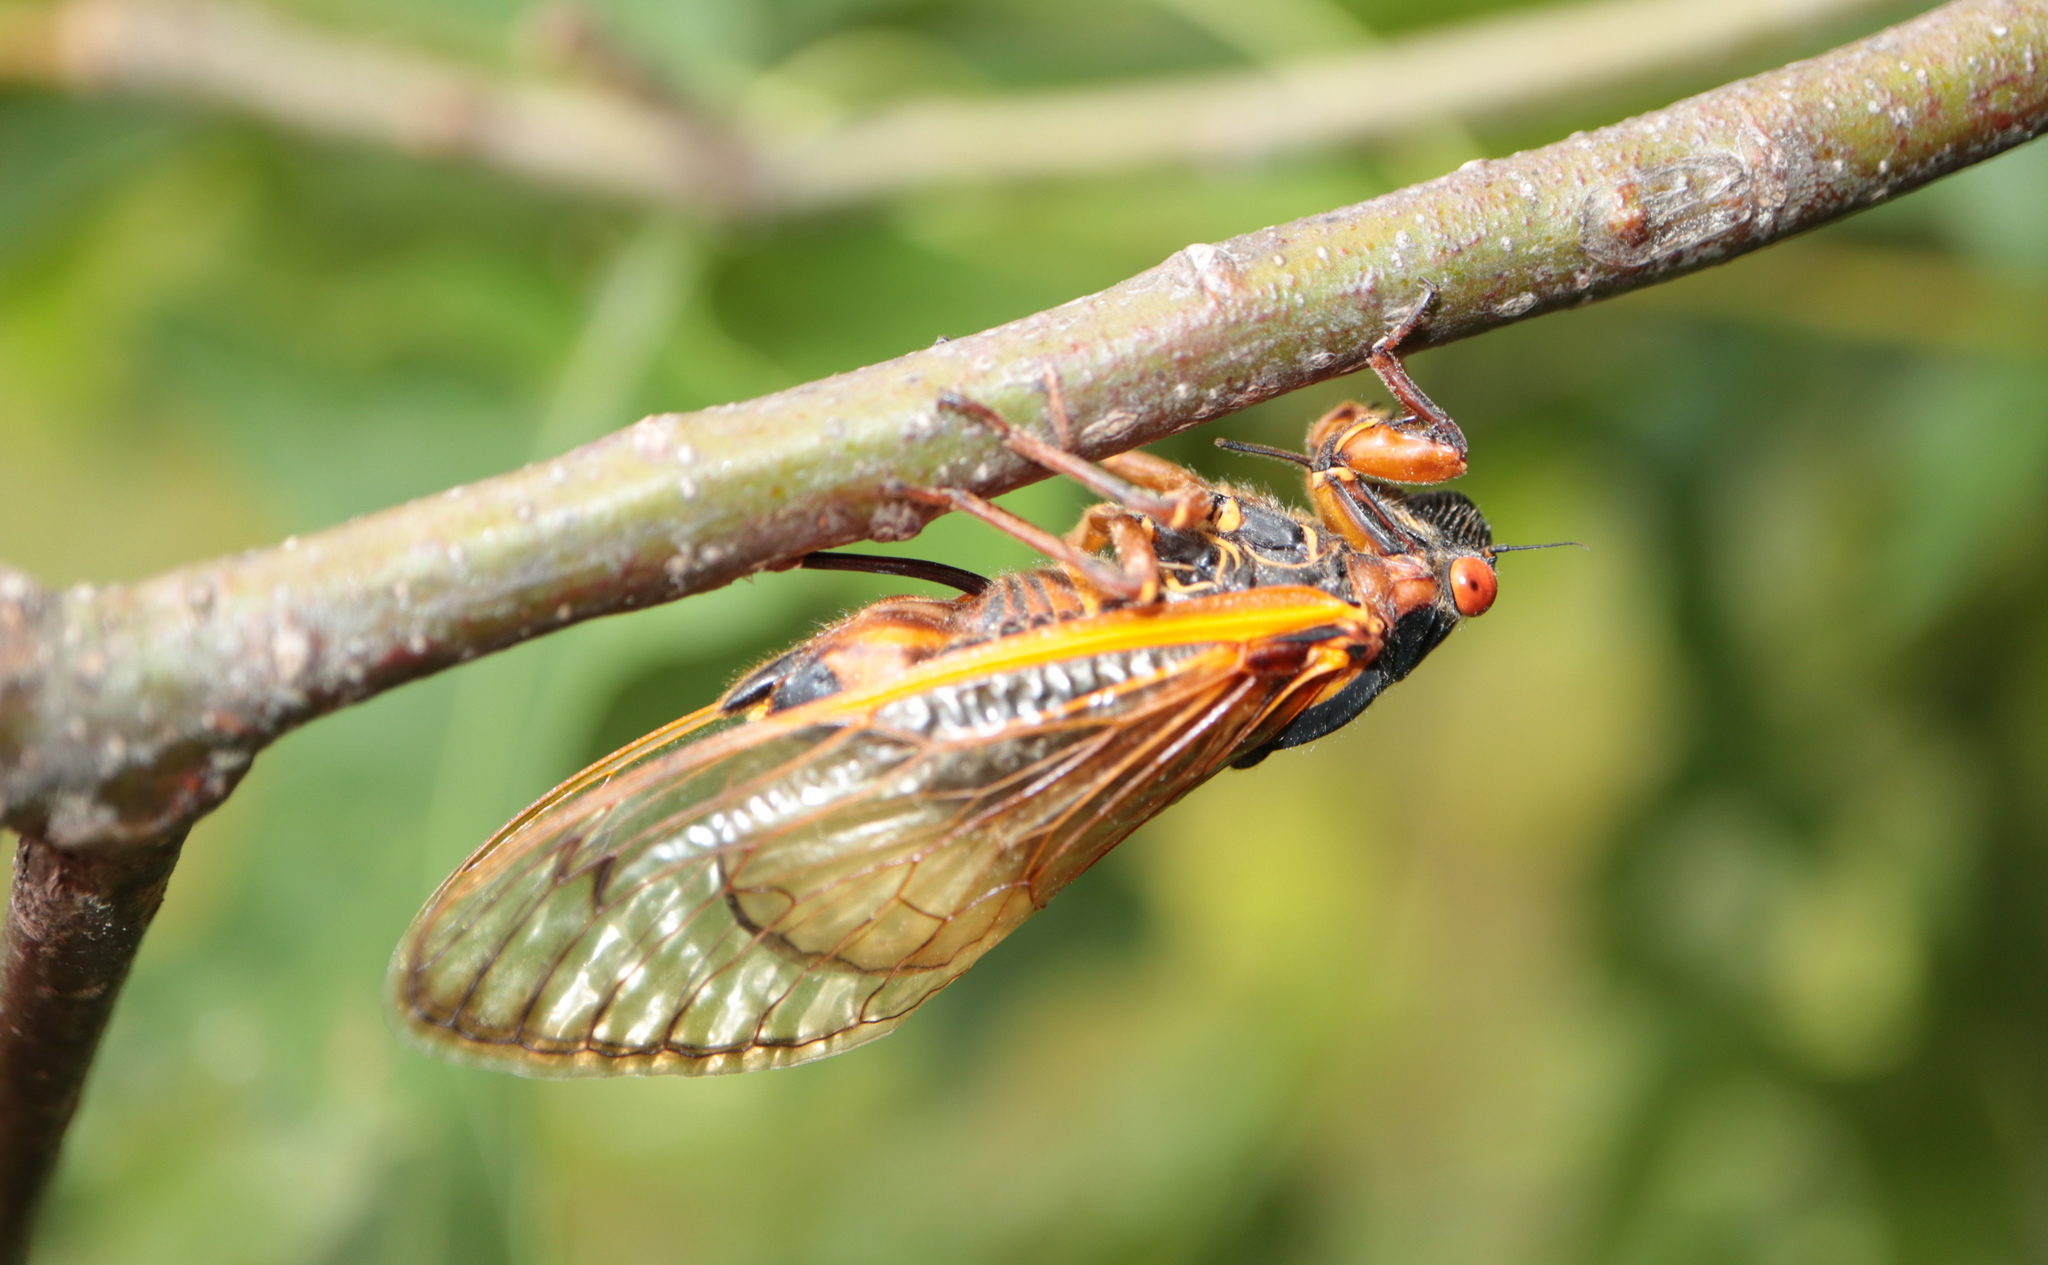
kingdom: Animalia
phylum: Arthropoda
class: Insecta
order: Hemiptera
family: Cicadidae
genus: Magicicada
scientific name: Magicicada septendecim
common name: Periodical cicada
